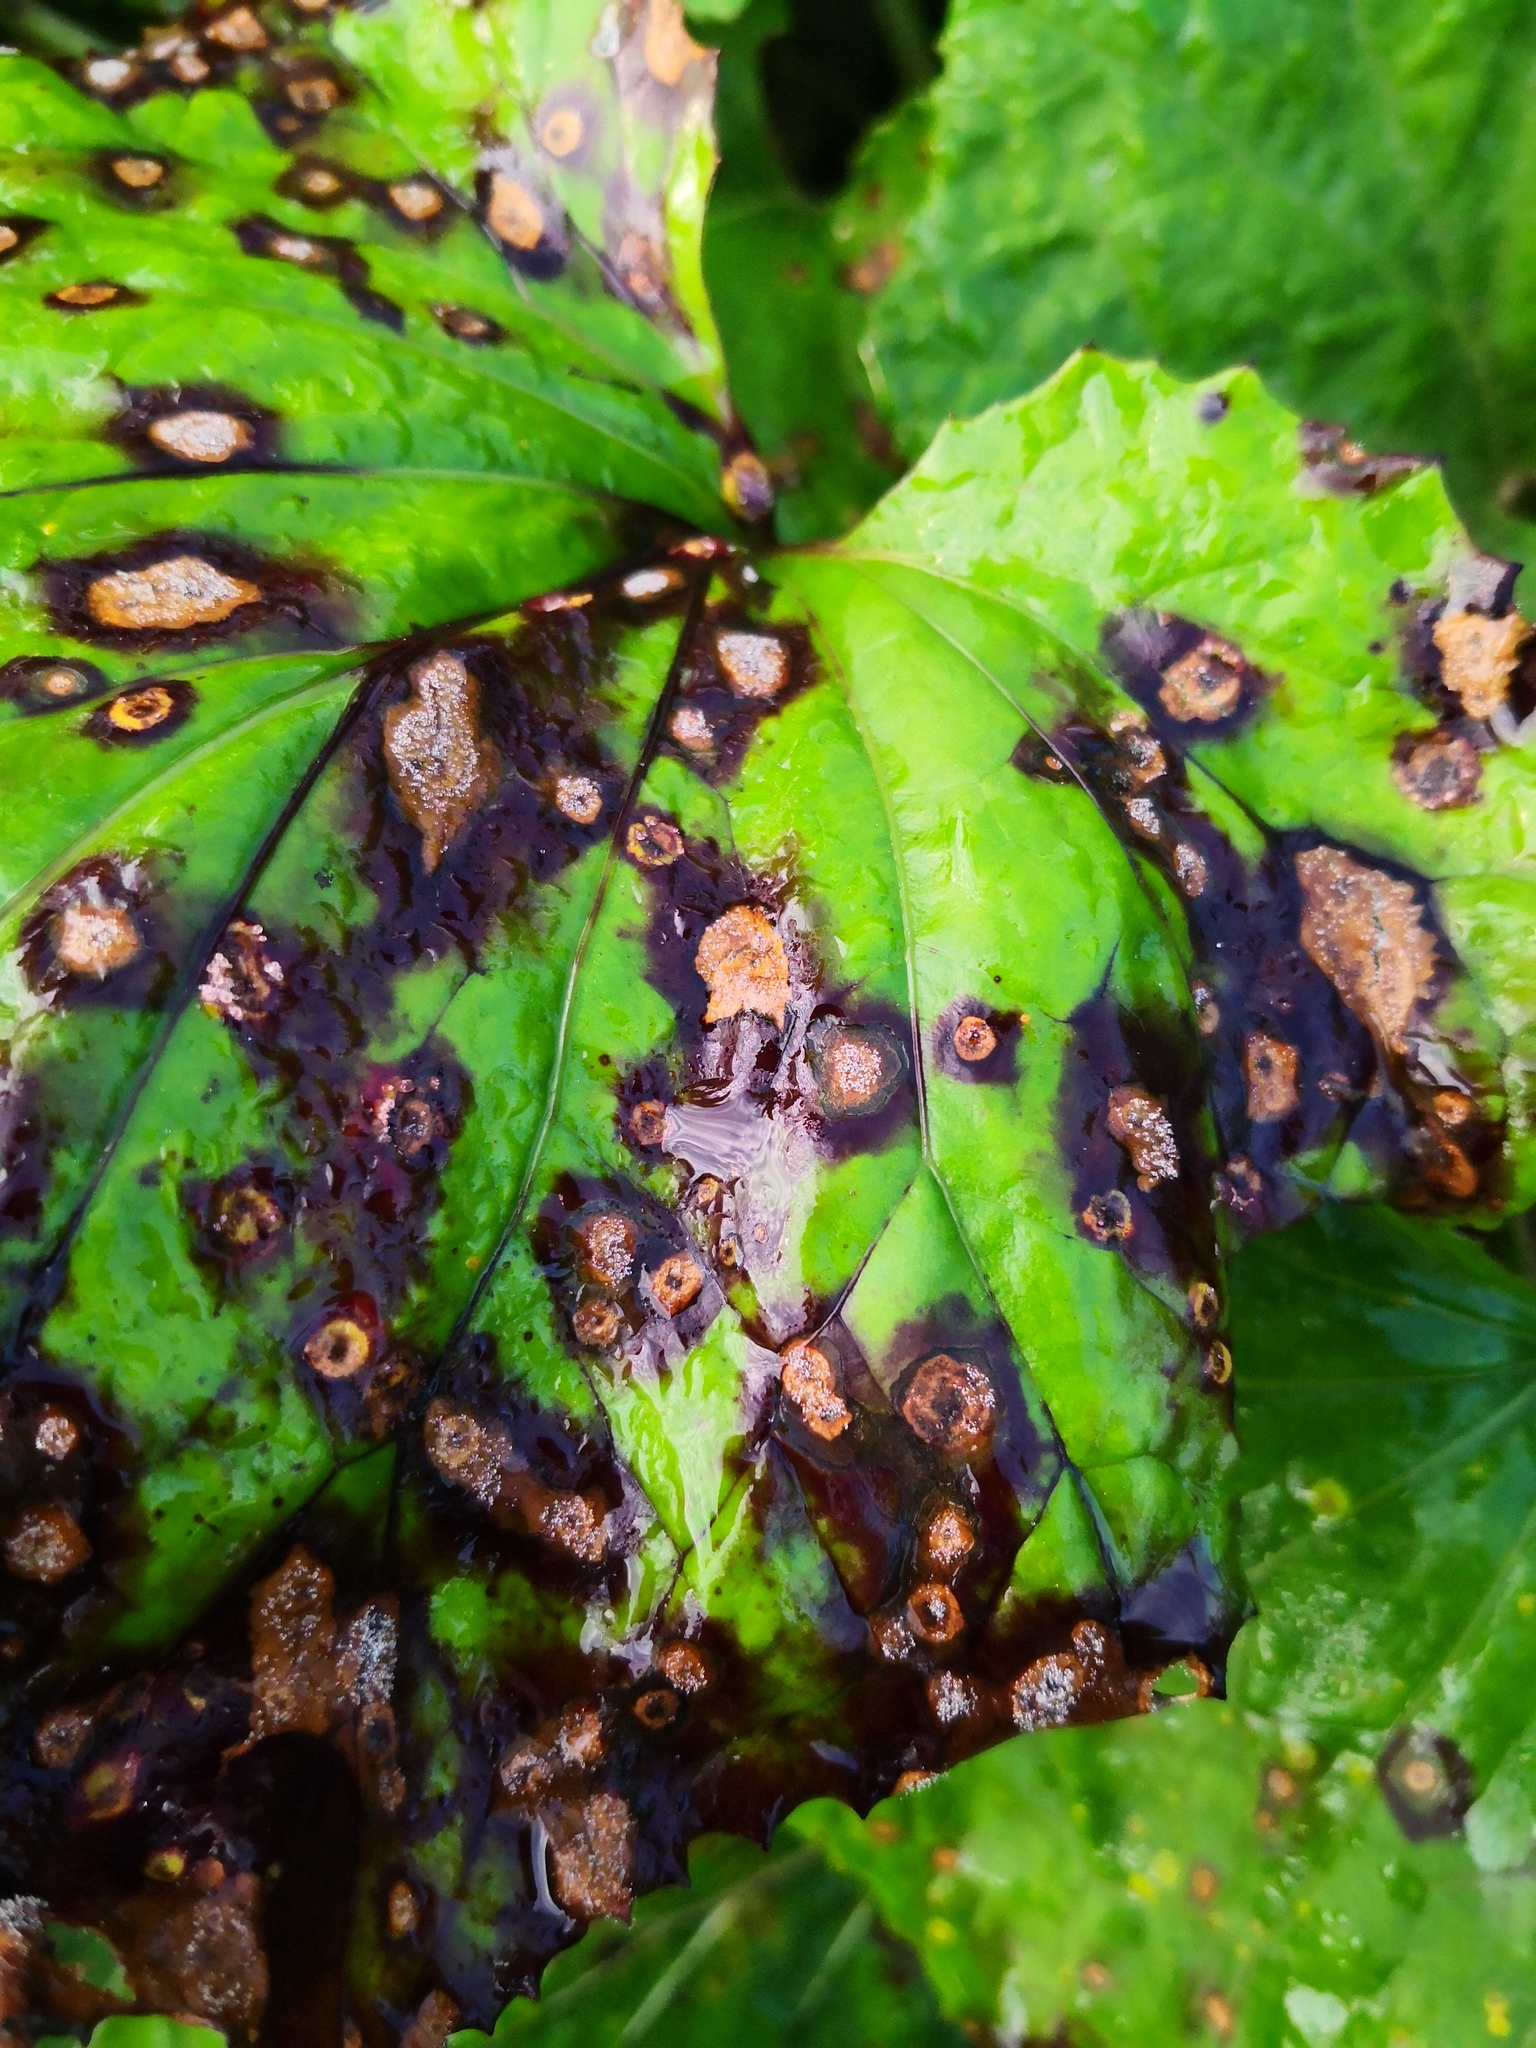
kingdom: Fungi
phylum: Basidiomycota
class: Pucciniomycetes
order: Pucciniales
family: Coleosporiaceae
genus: Coleosporium
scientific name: Coleosporium tussilaginis
